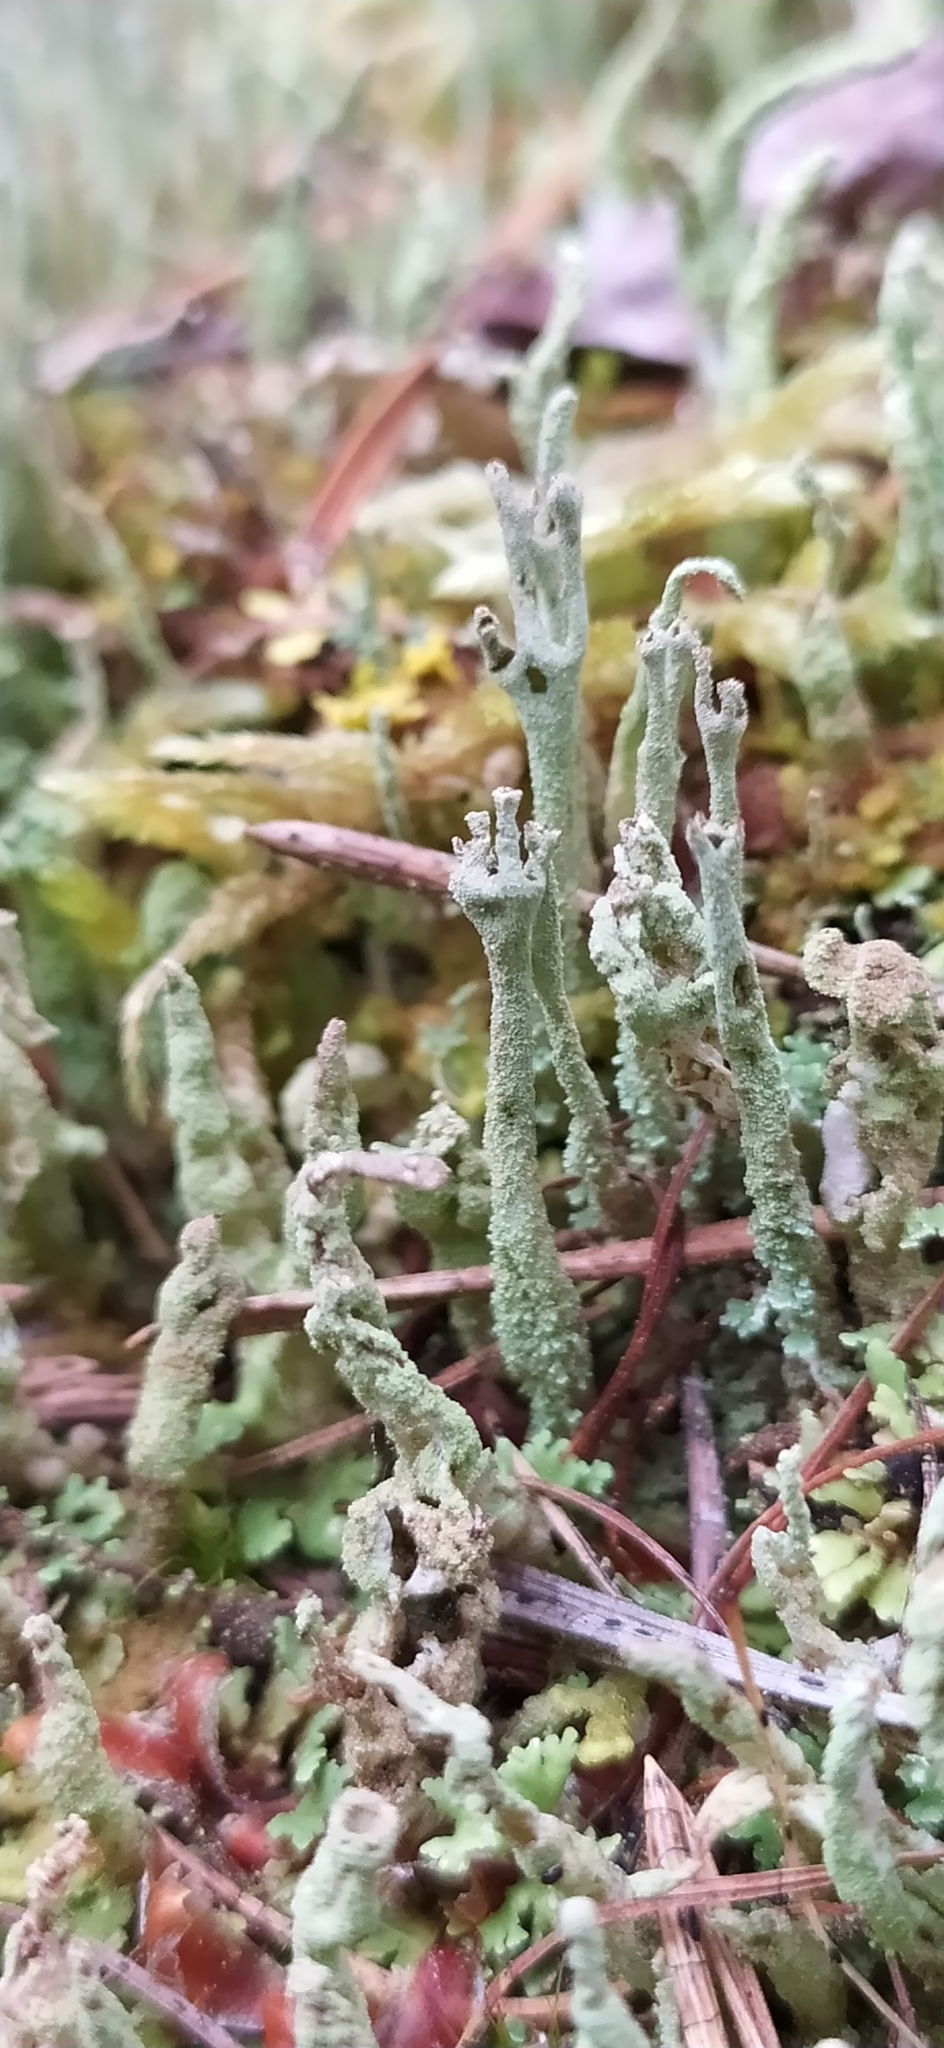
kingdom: Fungi
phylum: Ascomycota
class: Lecanoromycetes
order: Lecanorales
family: Cladoniaceae
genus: Cladonia
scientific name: Cladonia cenotea
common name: Powdered funnel lichen
